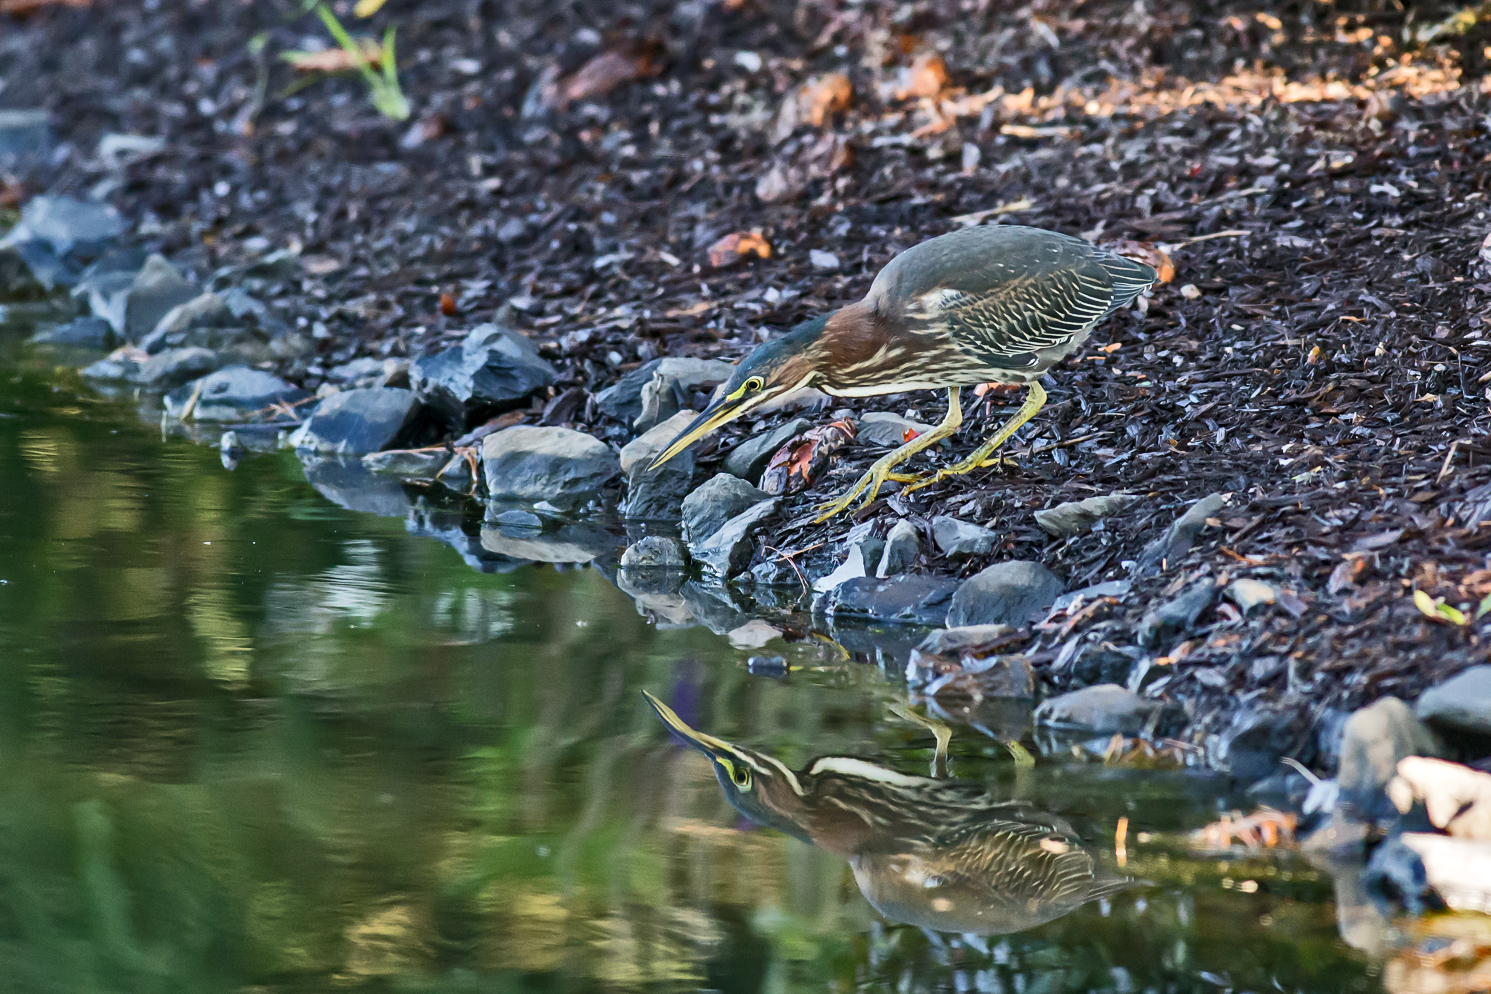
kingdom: Animalia
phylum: Chordata
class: Aves
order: Pelecaniformes
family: Ardeidae
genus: Butorides
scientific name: Butorides virescens
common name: Green heron
